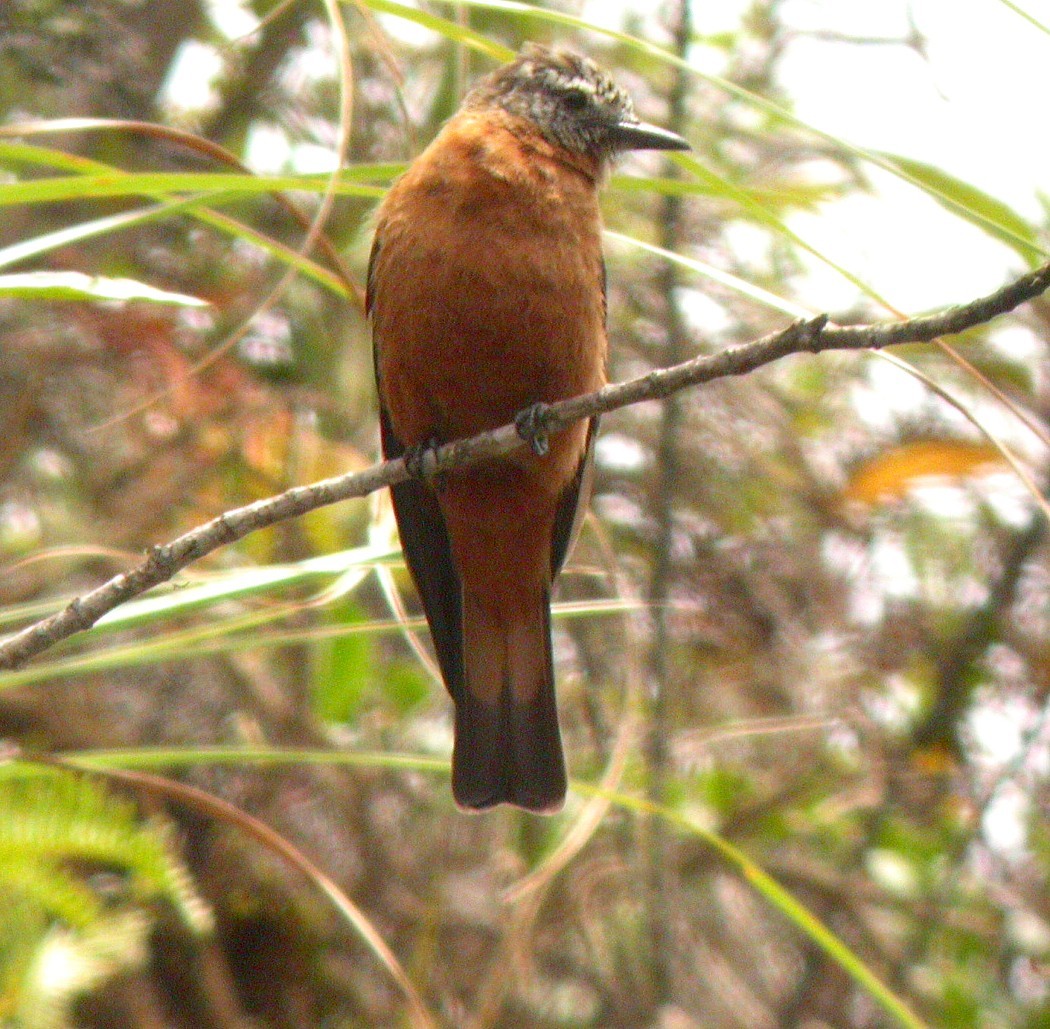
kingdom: Animalia
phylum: Chordata
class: Aves
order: Passeriformes
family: Tyrannidae
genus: Hirundinea
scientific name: Hirundinea ferruginea
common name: Cliff flycatcher
